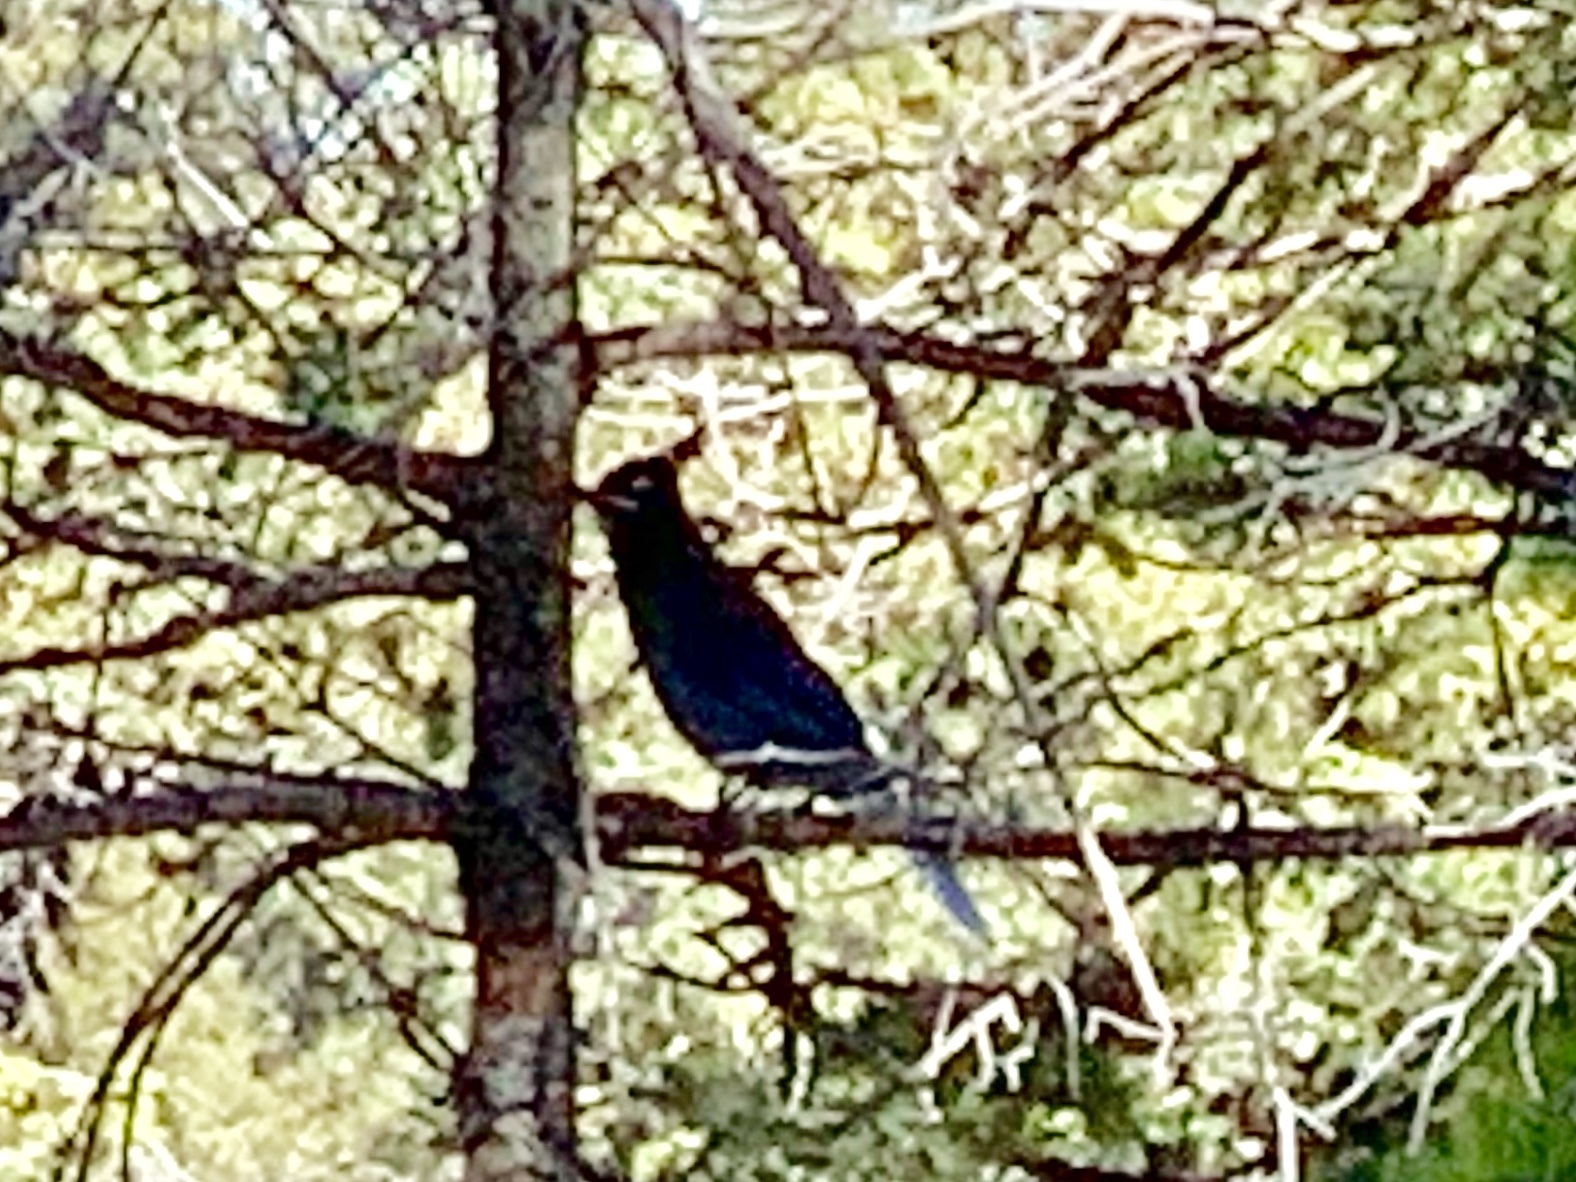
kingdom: Animalia
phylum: Chordata
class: Aves
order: Passeriformes
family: Corvidae
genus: Cyanocitta
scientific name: Cyanocitta stelleri
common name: Steller's jay
